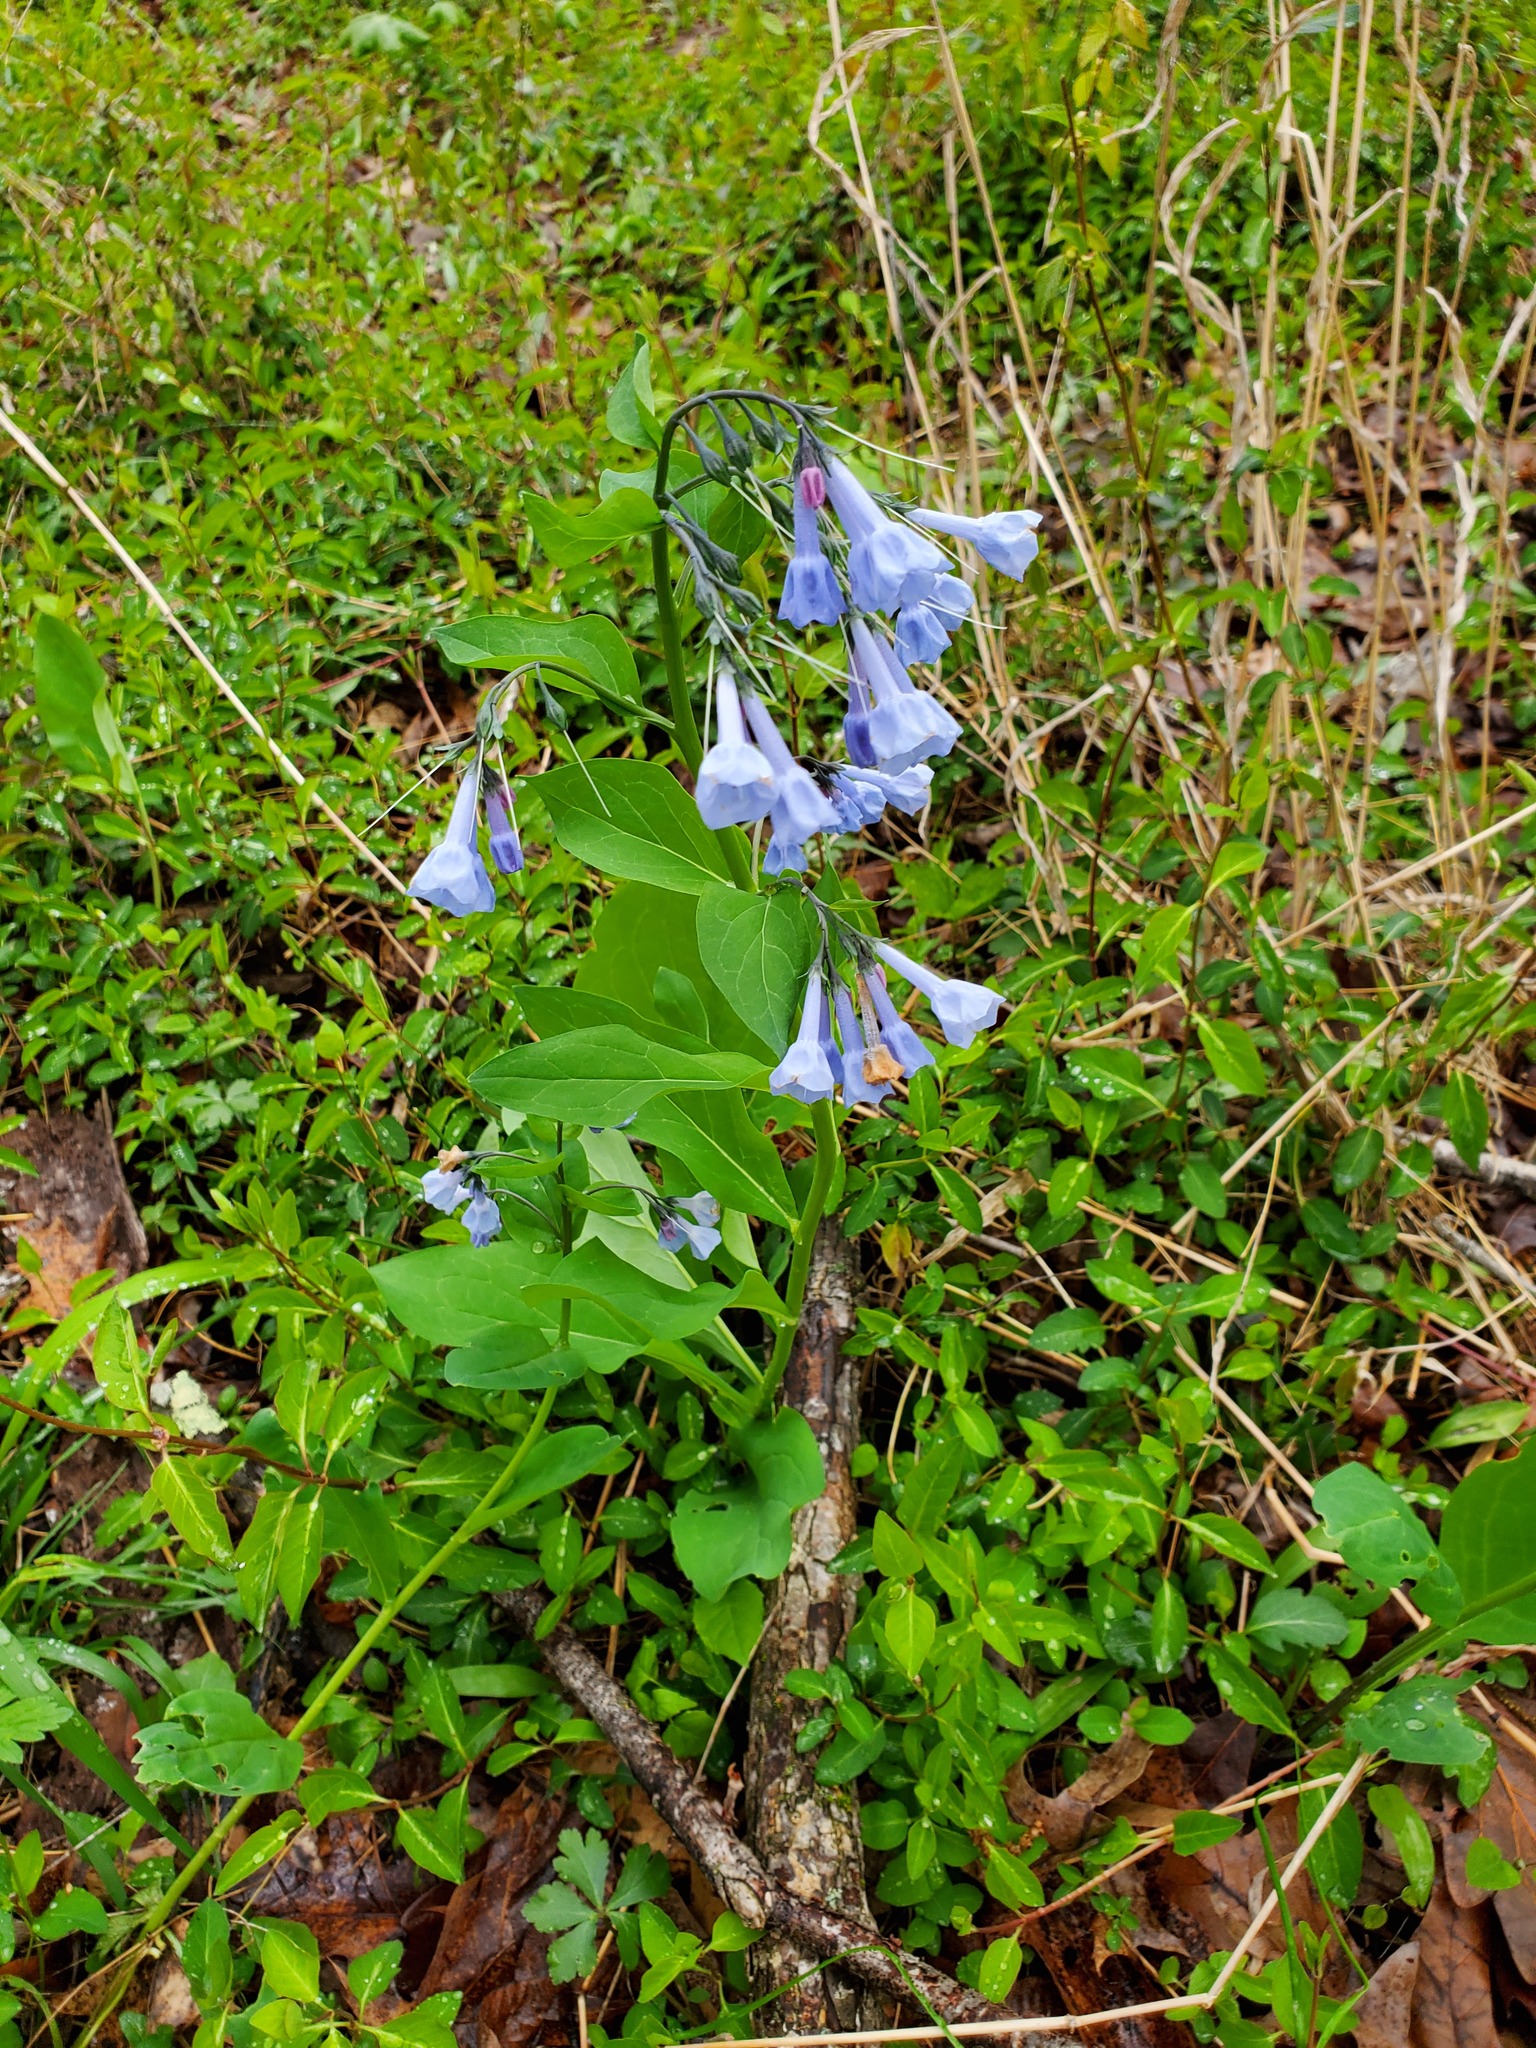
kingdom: Plantae
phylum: Tracheophyta
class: Magnoliopsida
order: Boraginales
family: Boraginaceae
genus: Mertensia
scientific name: Mertensia virginica
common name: Virginia bluebells
